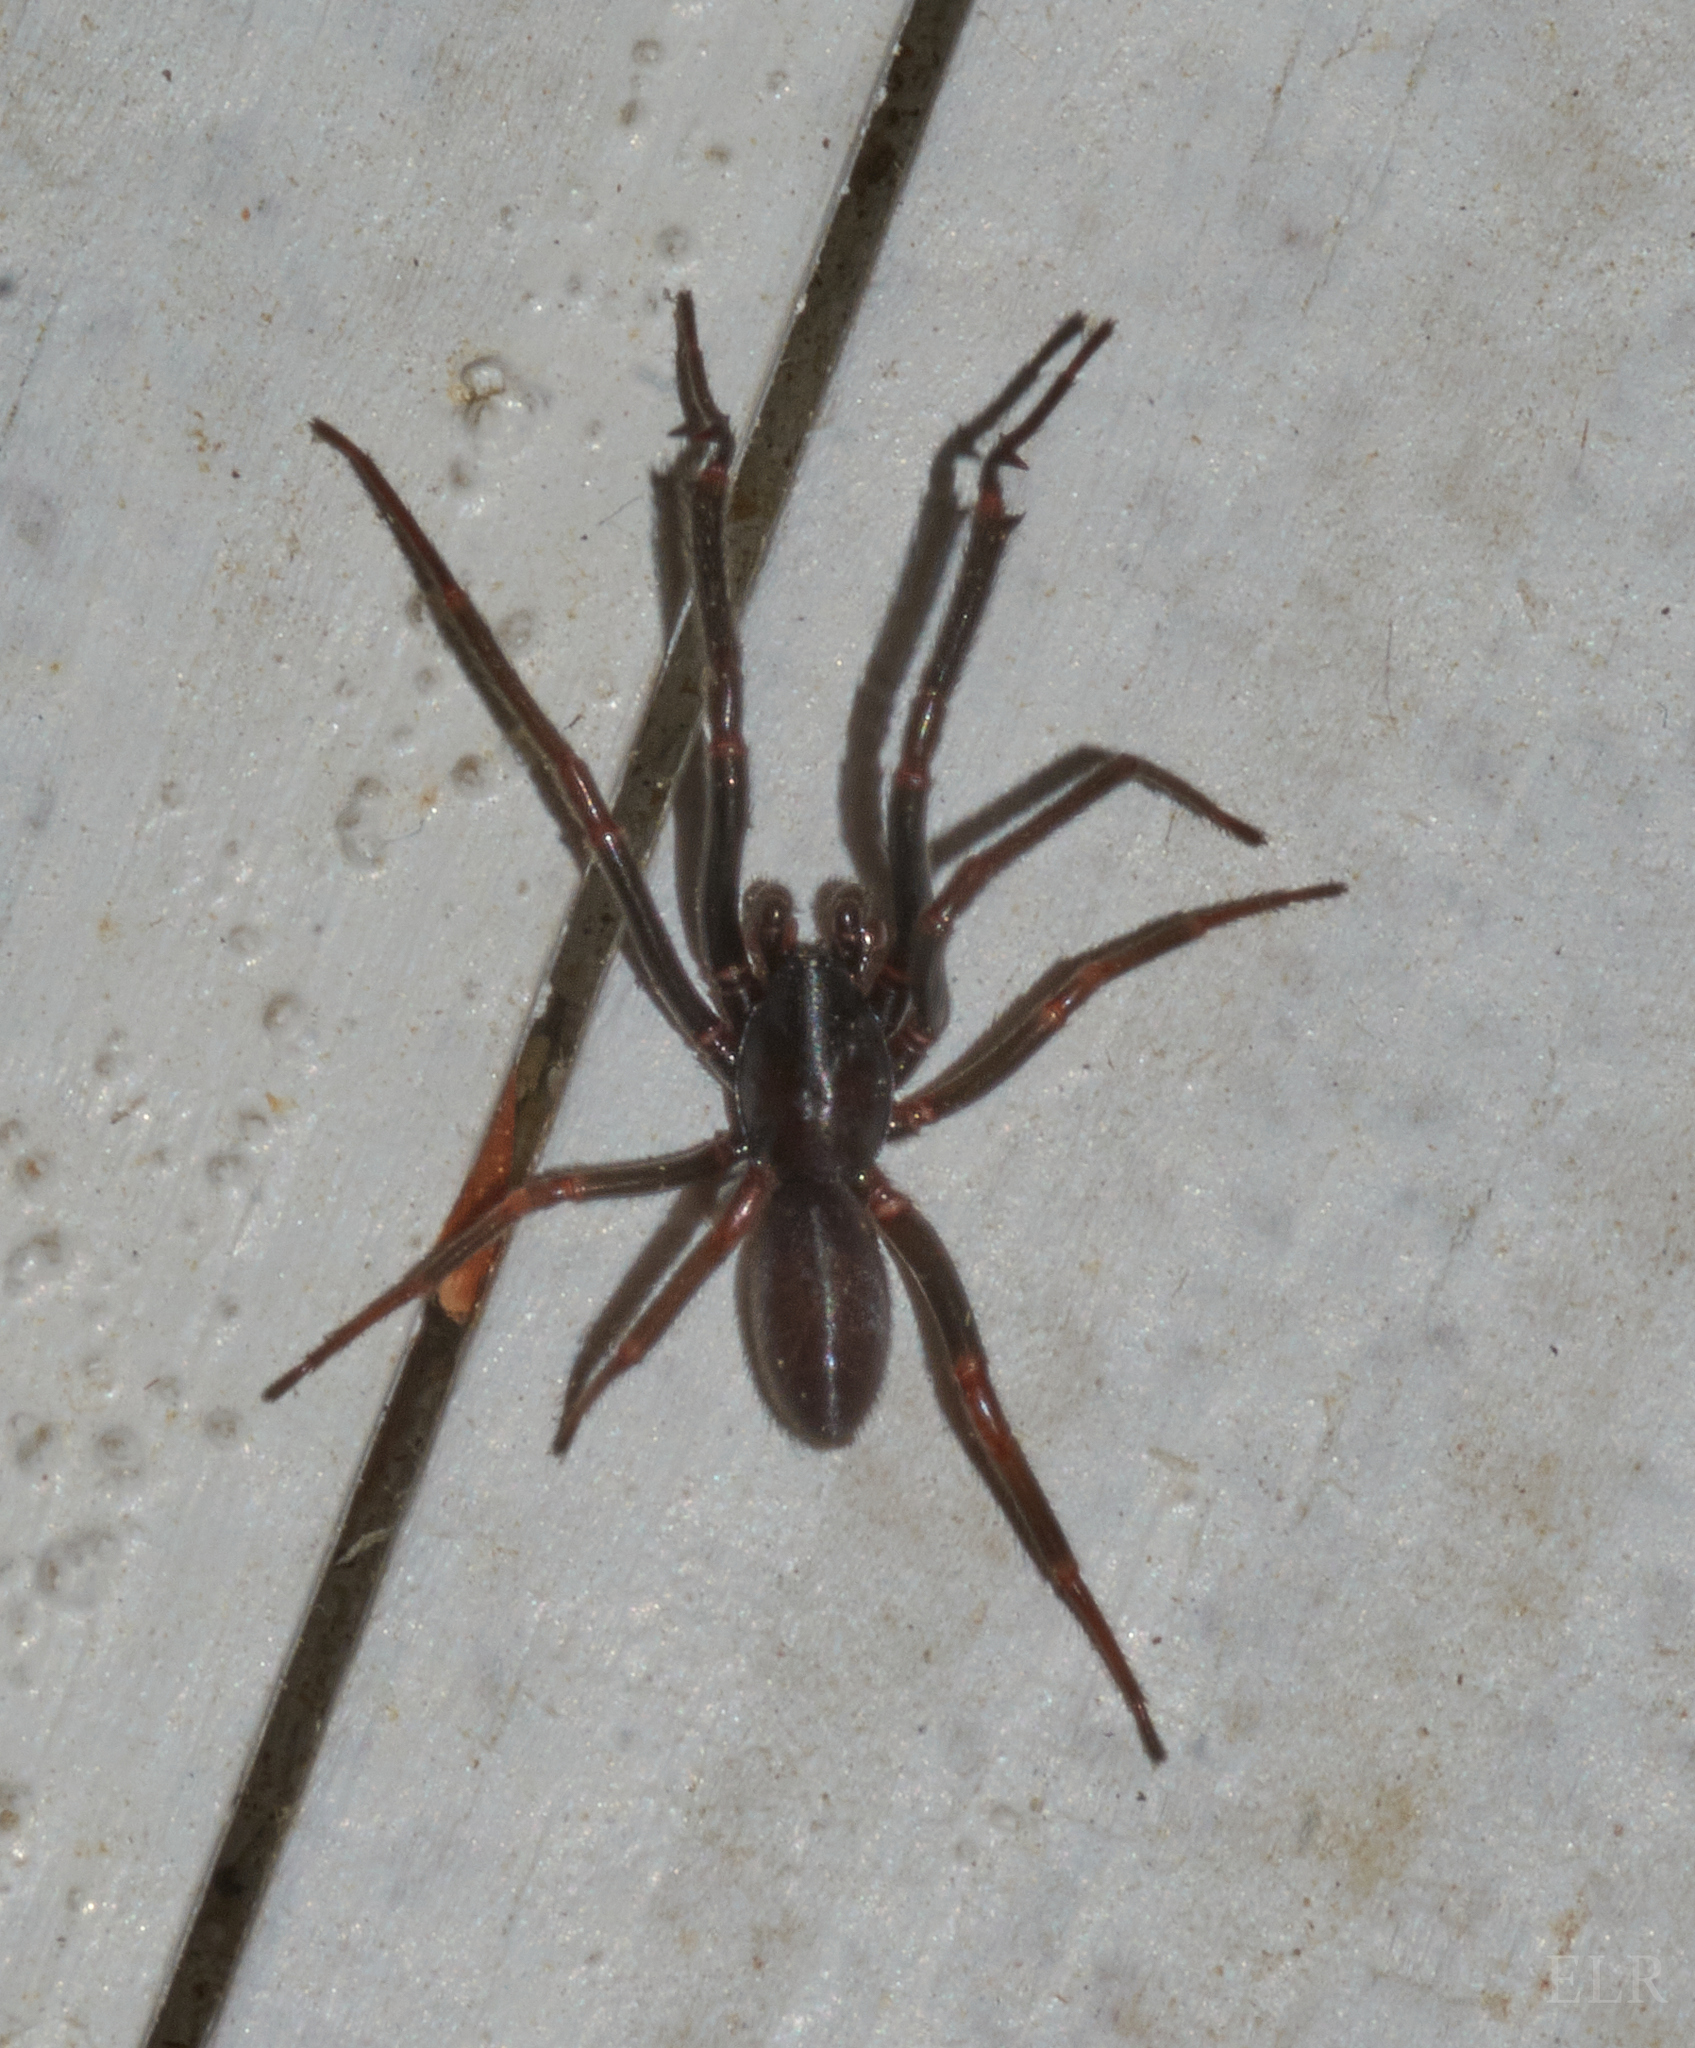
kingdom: Animalia
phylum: Arthropoda
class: Arachnida
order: Araneae
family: Segestriidae
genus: Ariadna
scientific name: Ariadna bicolor
